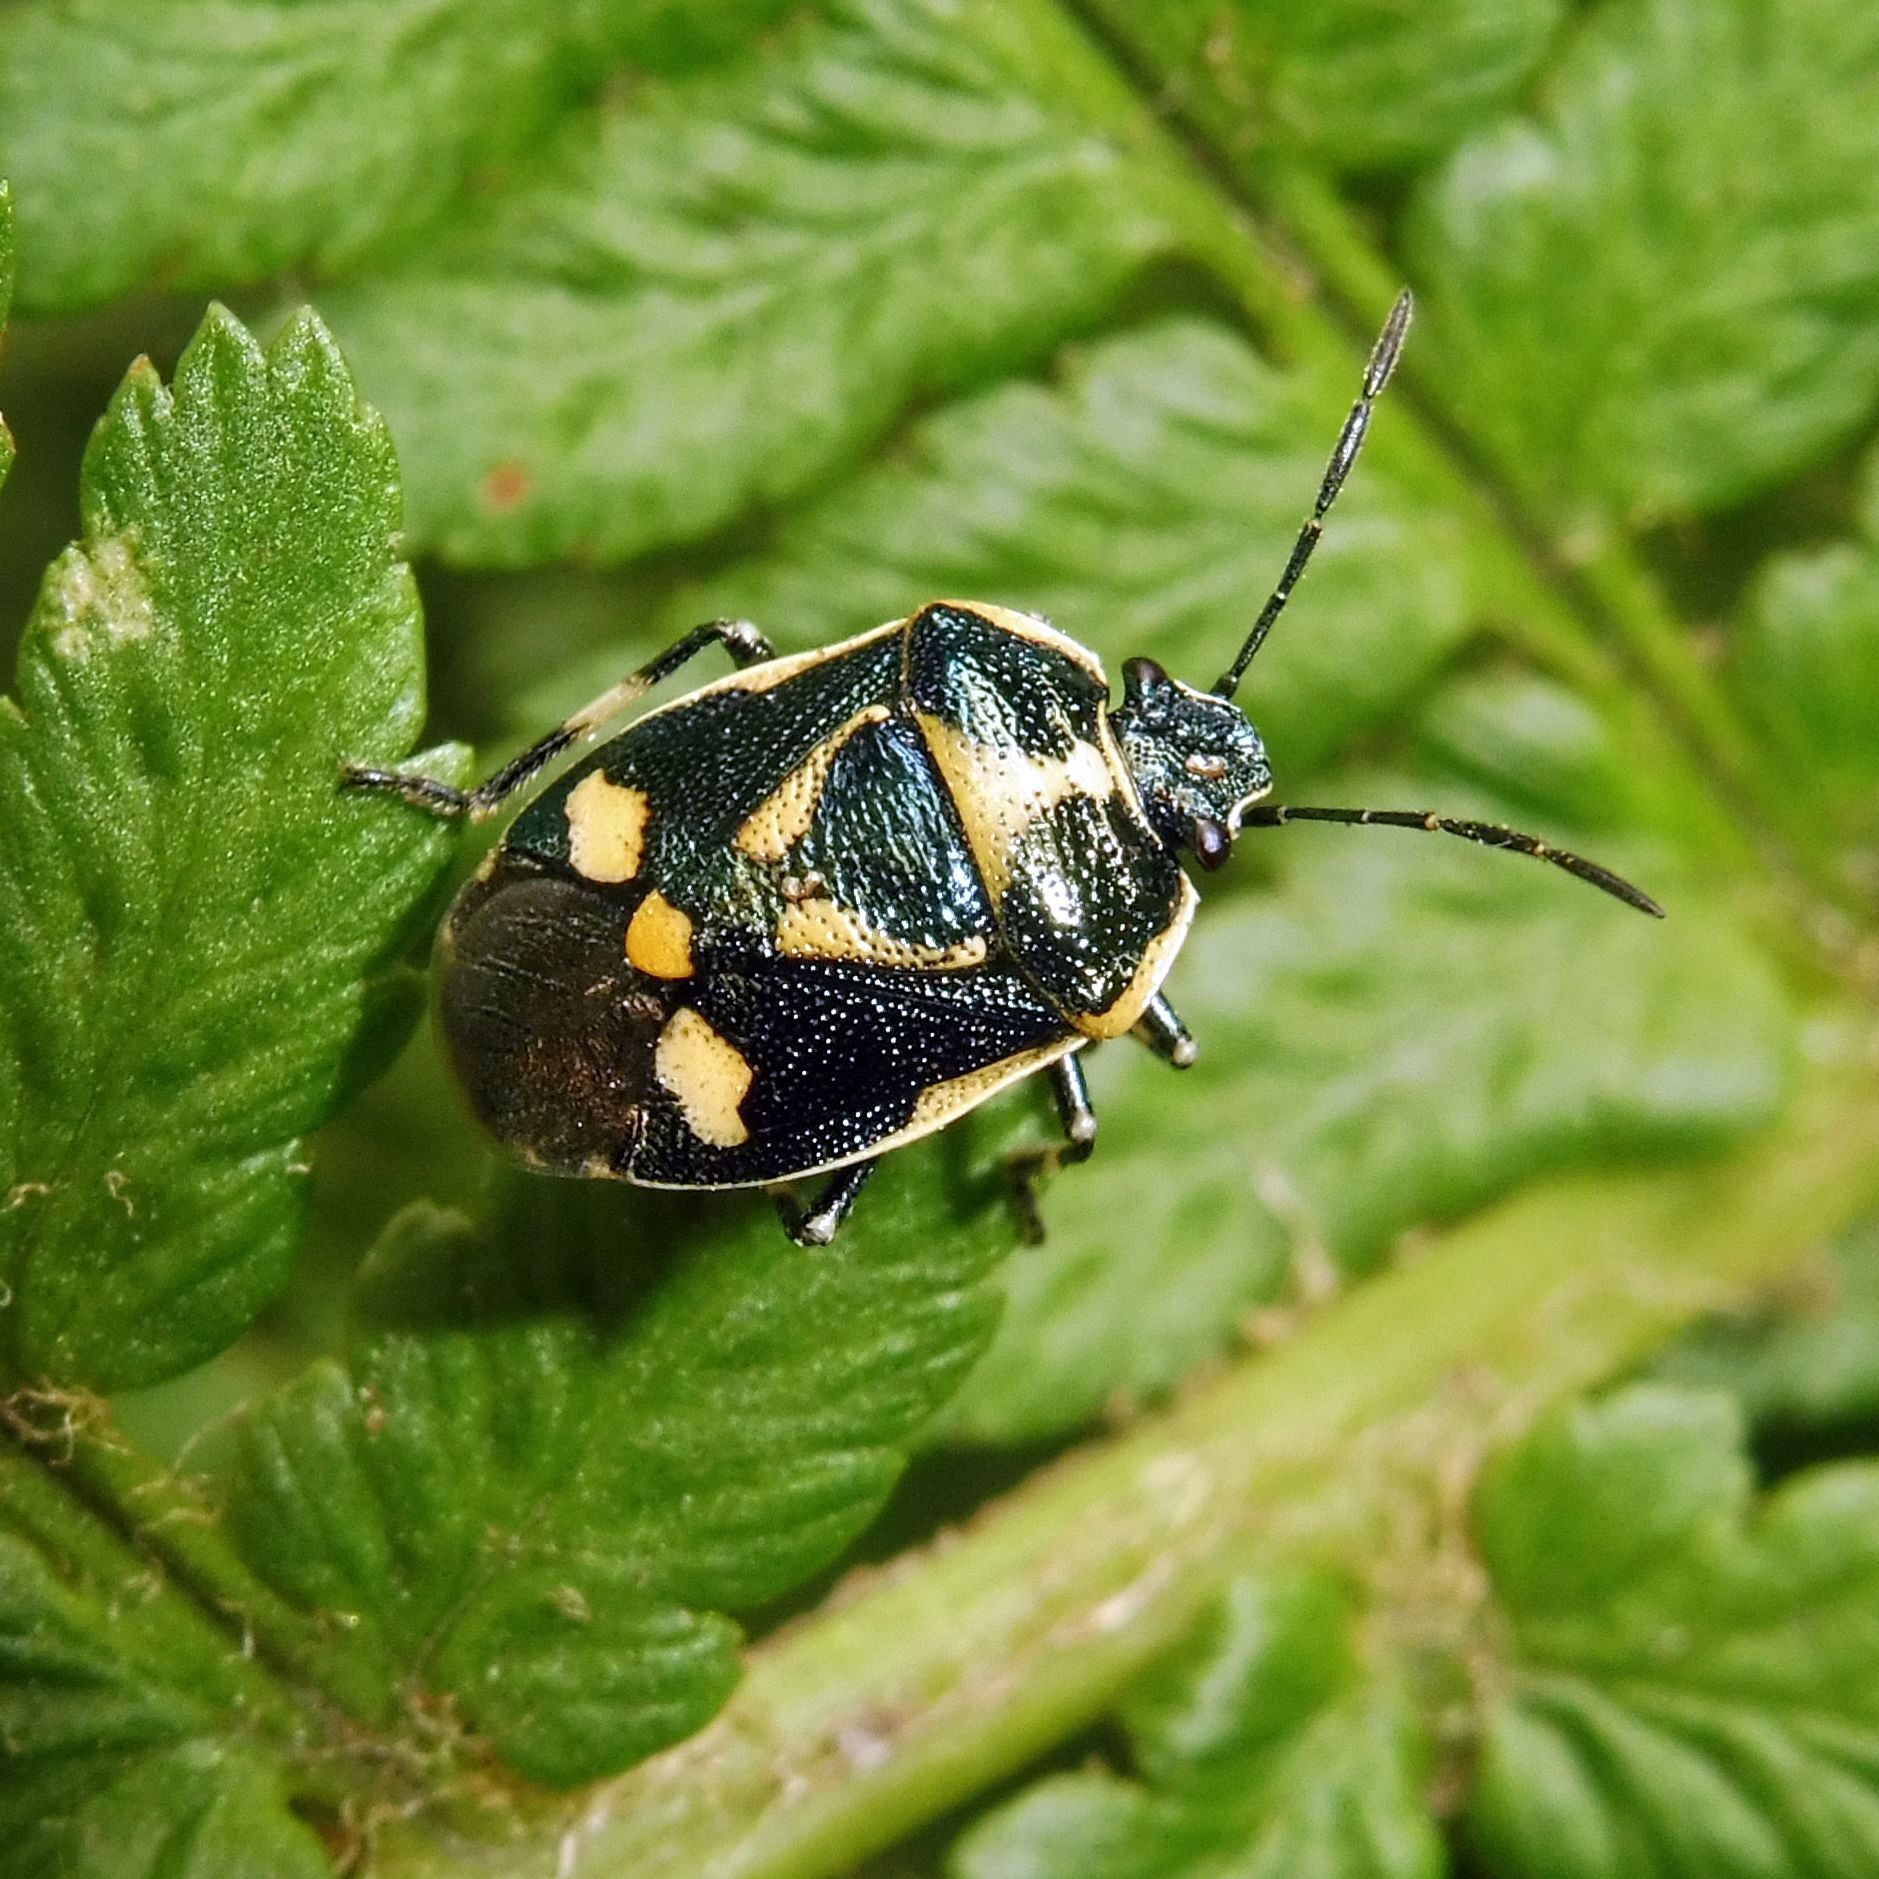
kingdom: Animalia
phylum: Arthropoda
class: Insecta
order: Hemiptera
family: Pentatomidae
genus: Eurydema
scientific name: Eurydema oleracea
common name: Cabbage bug
